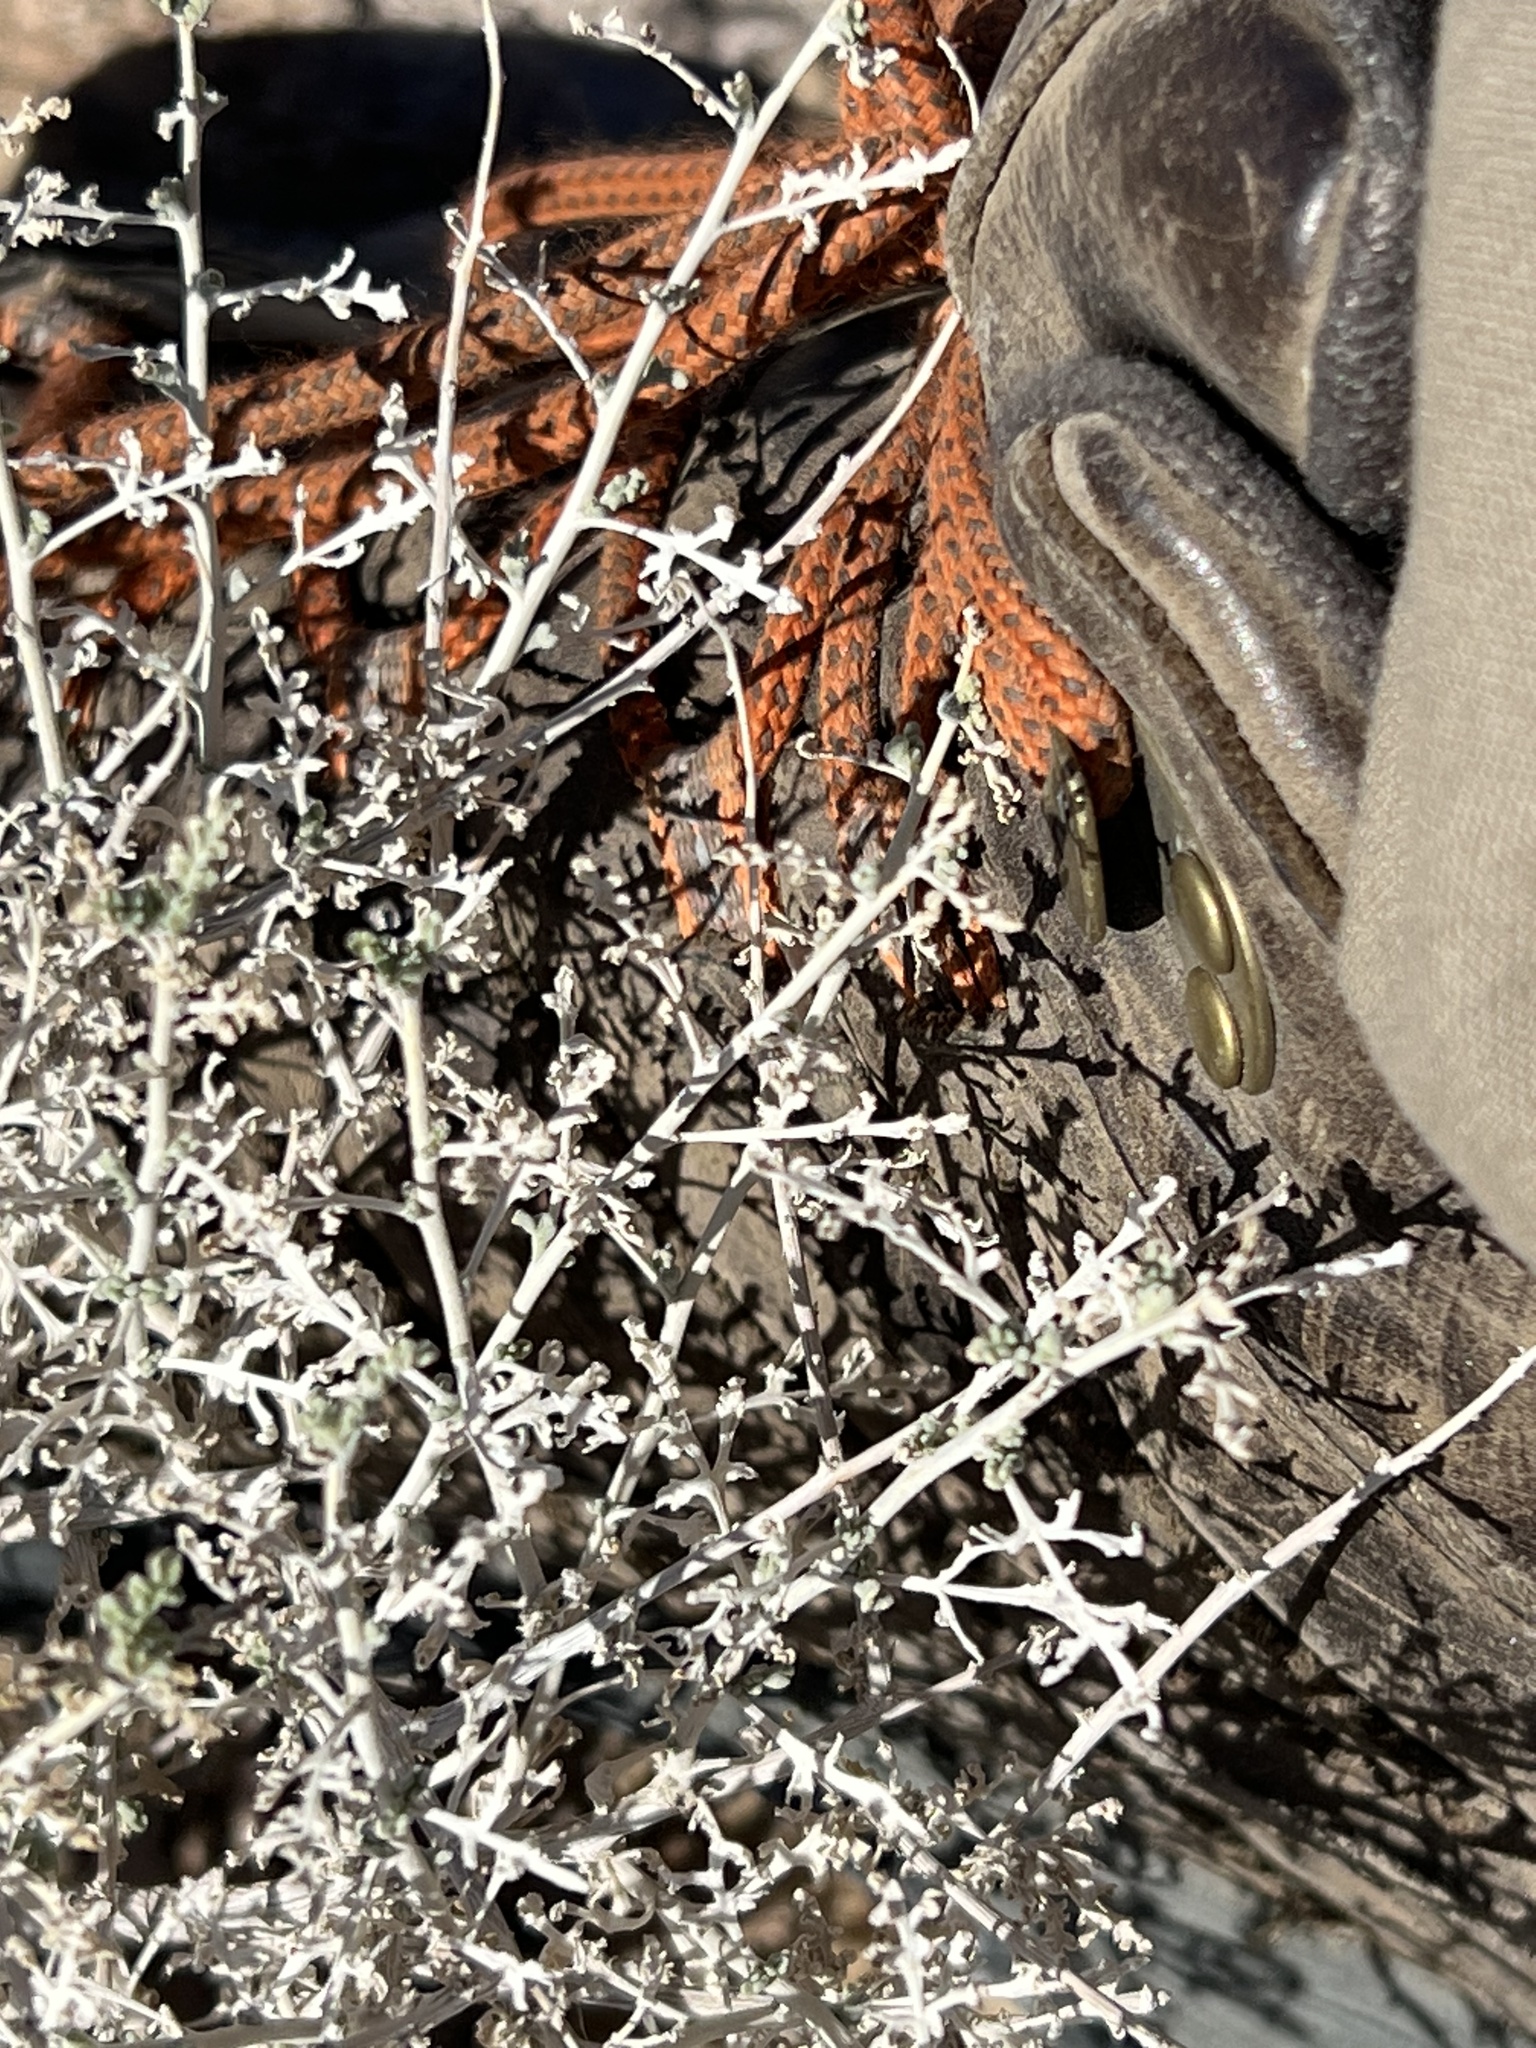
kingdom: Plantae
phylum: Tracheophyta
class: Magnoliopsida
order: Asterales
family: Asteraceae
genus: Ambrosia
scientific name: Ambrosia dumosa
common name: Bur-sage
